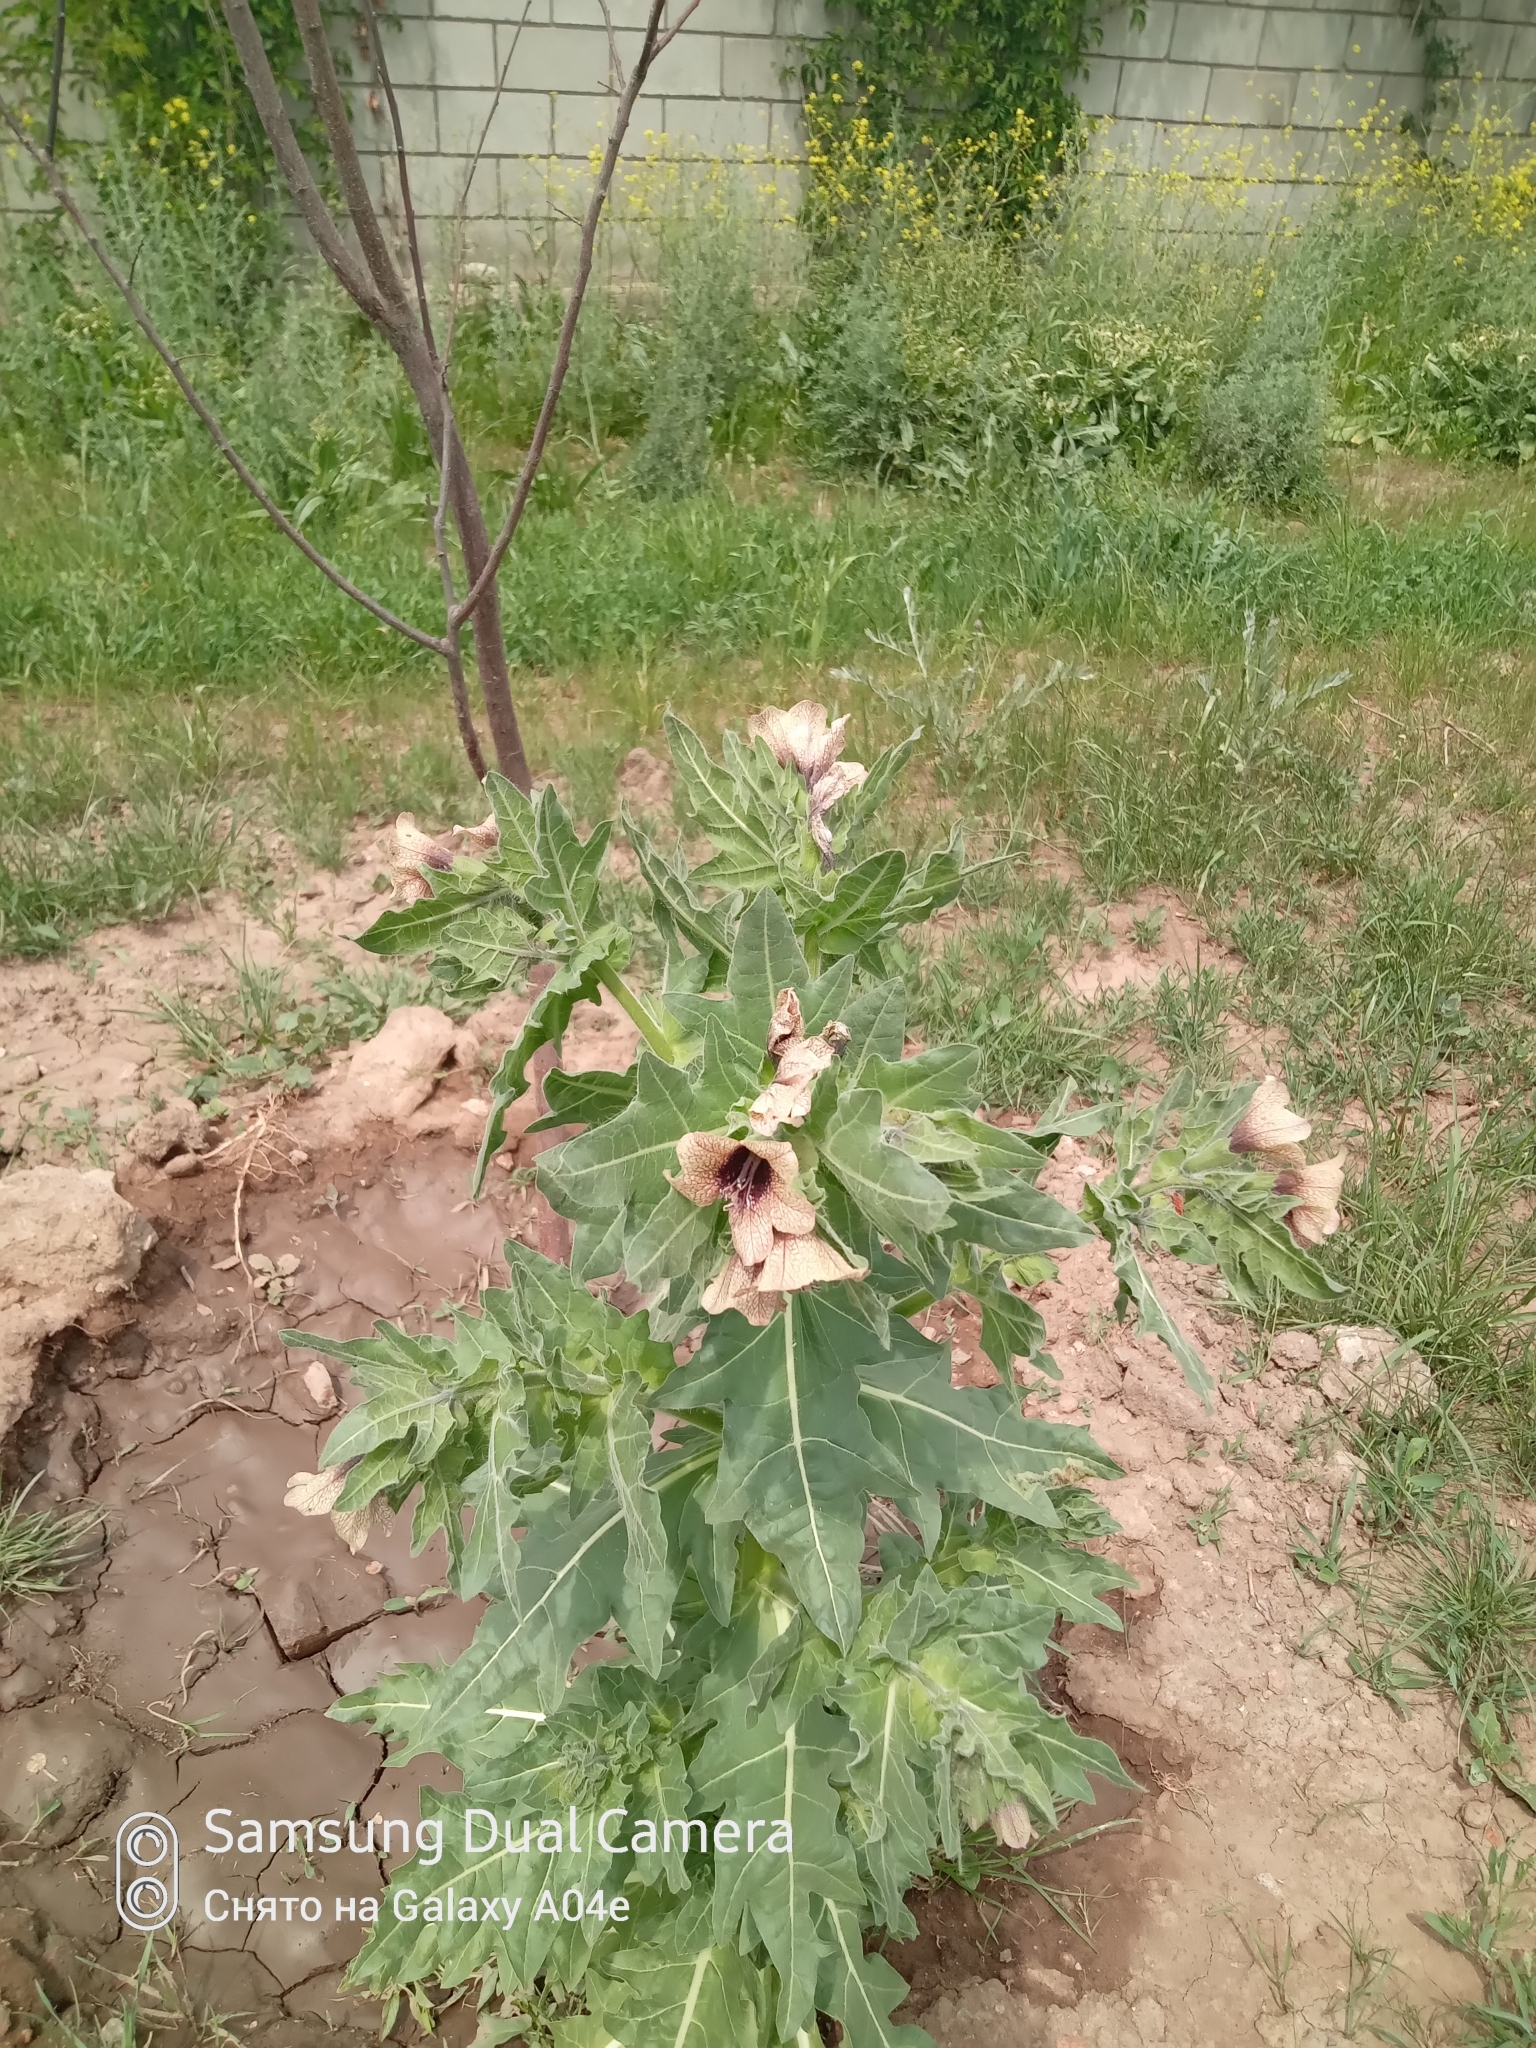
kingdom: Plantae
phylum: Tracheophyta
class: Magnoliopsida
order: Solanales
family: Solanaceae
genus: Hyoscyamus
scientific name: Hyoscyamus niger
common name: Henbane
